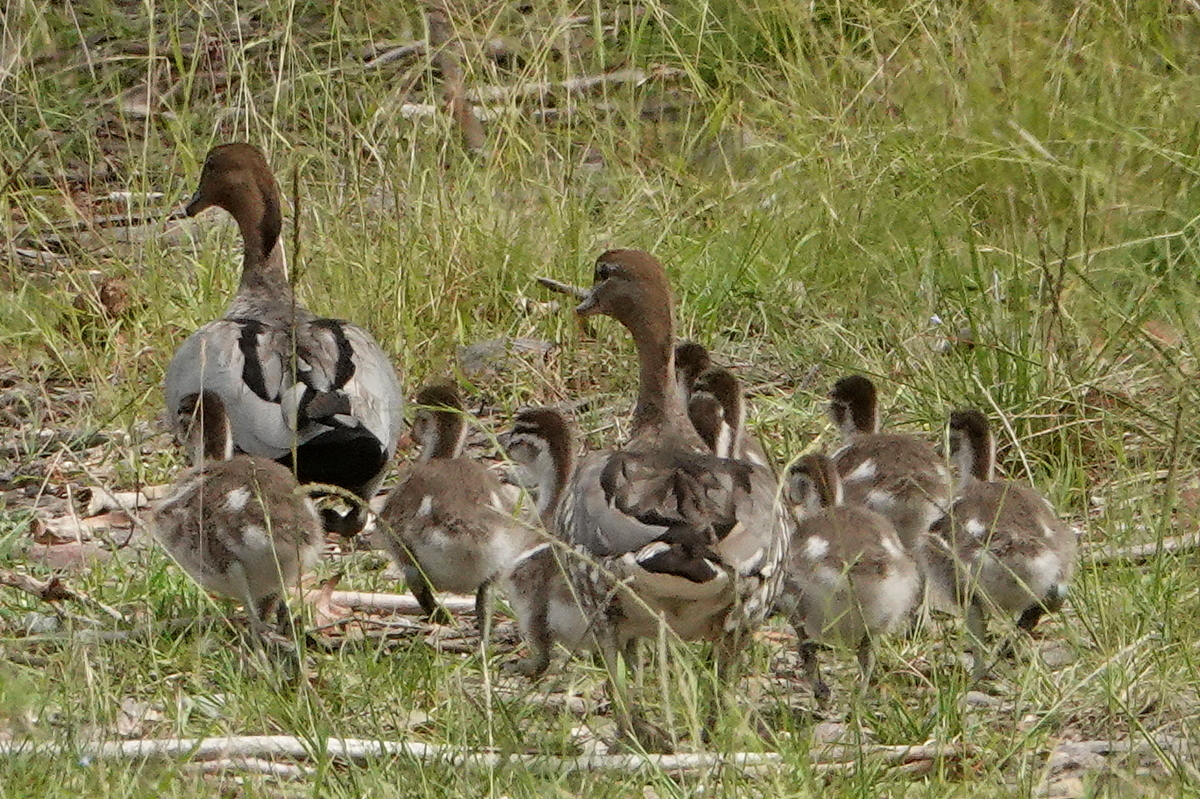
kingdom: Animalia
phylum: Chordata
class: Aves
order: Anseriformes
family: Anatidae
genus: Chenonetta
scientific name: Chenonetta jubata
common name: Maned duck
